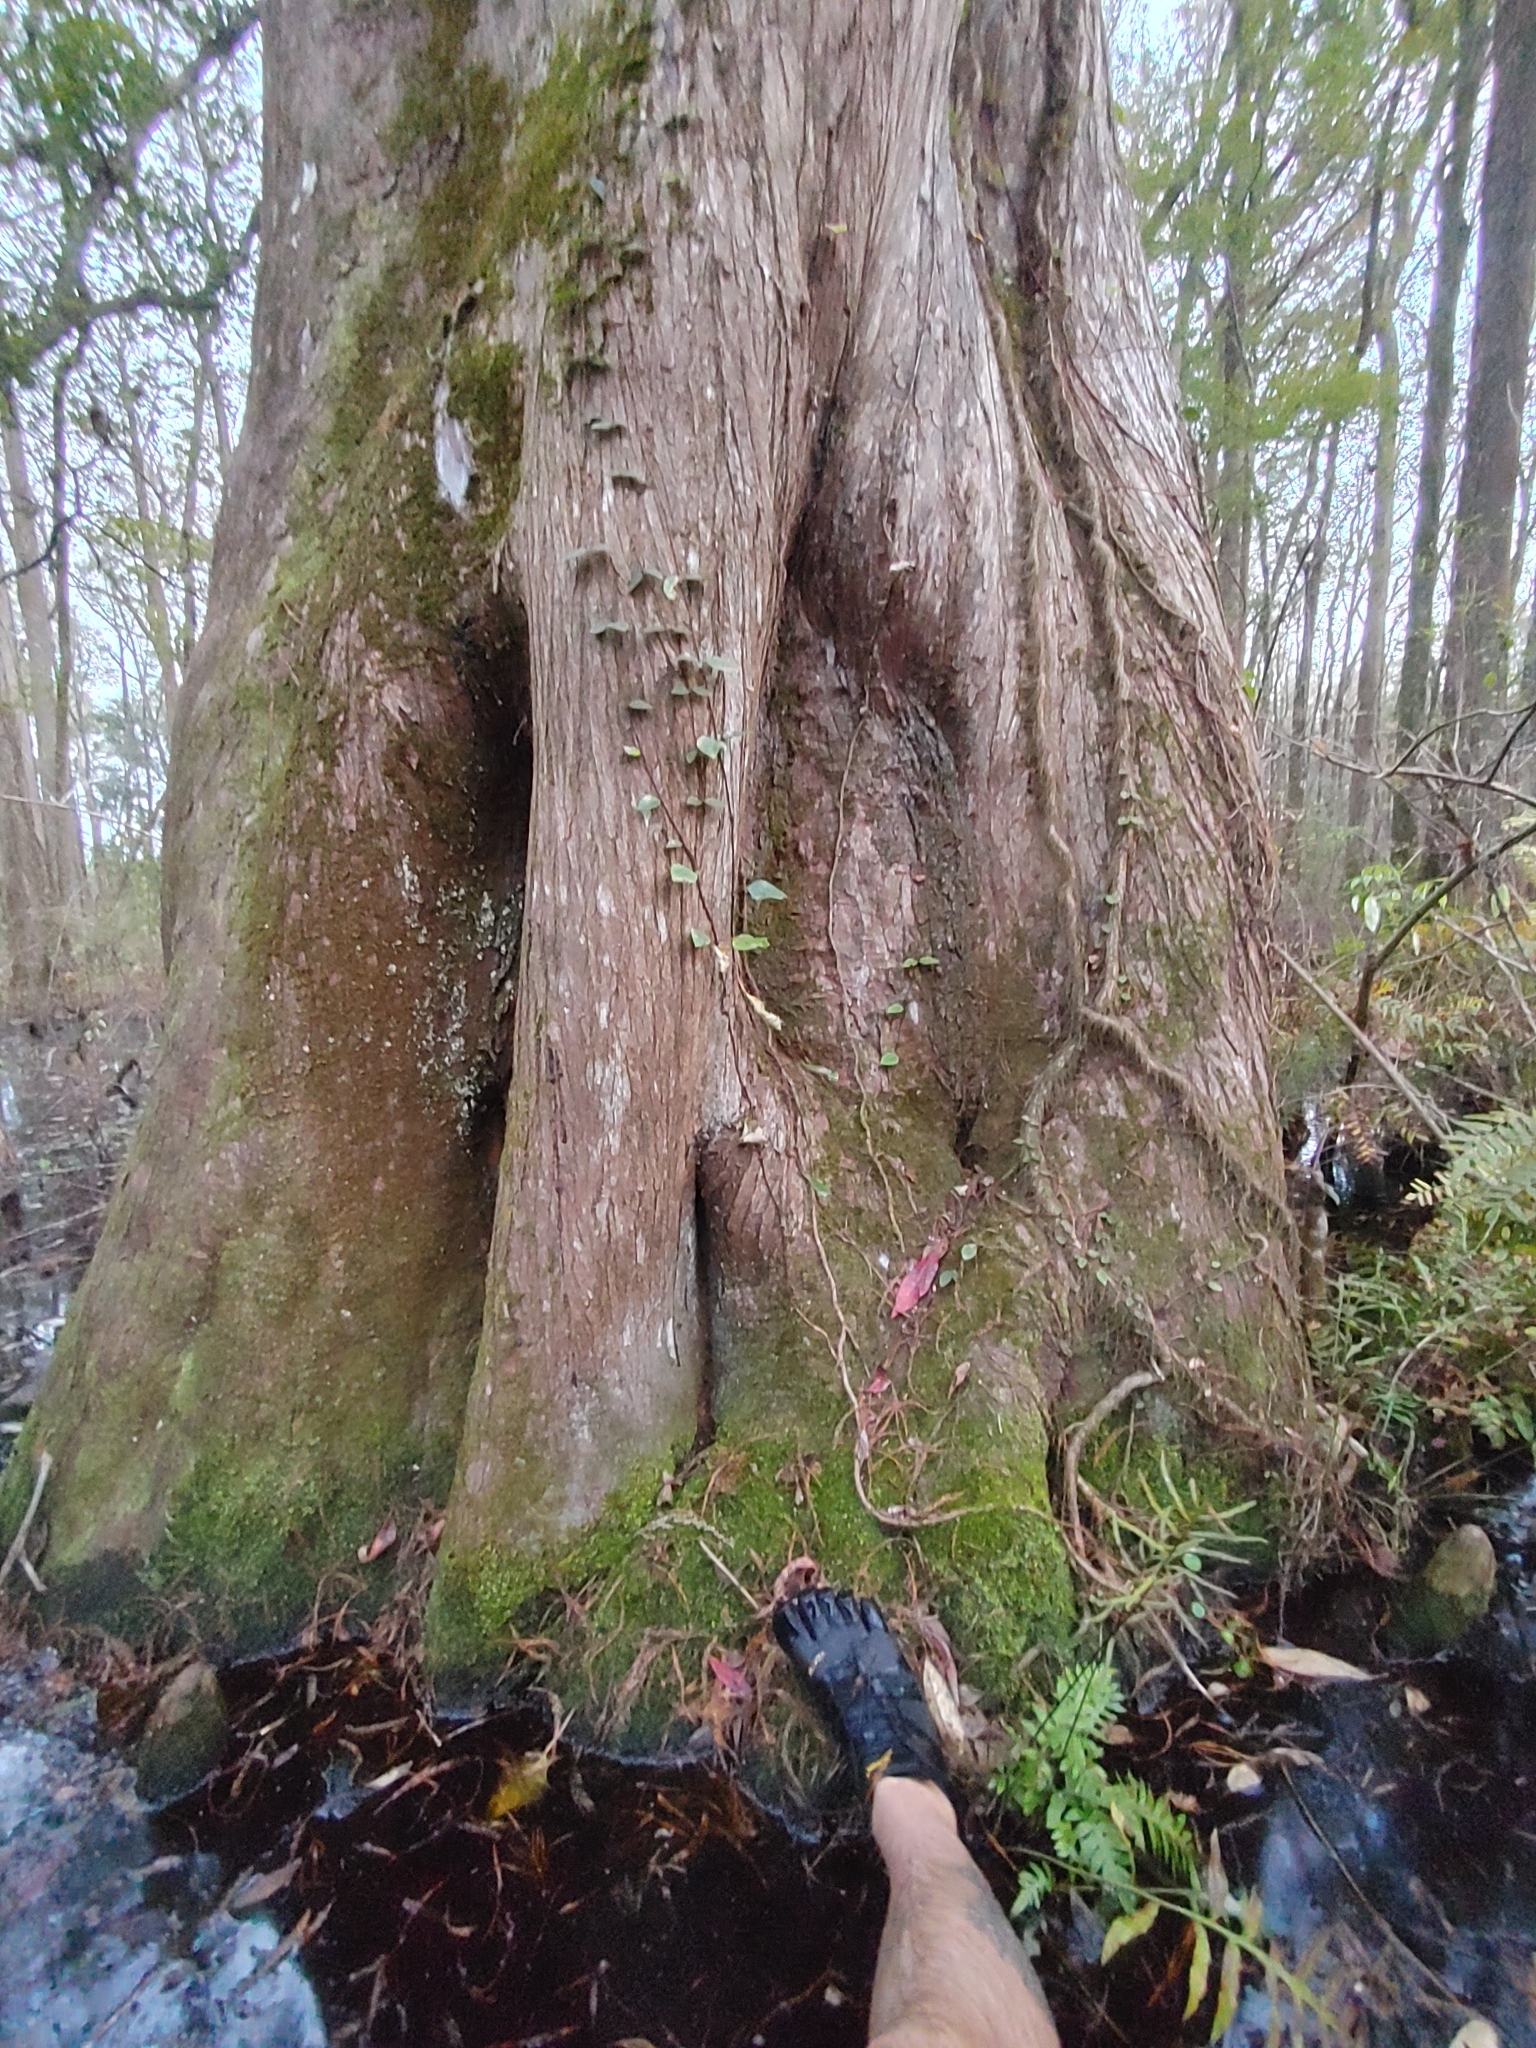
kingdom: Plantae
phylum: Tracheophyta
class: Pinopsida
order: Pinales
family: Cupressaceae
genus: Taxodium
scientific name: Taxodium distichum
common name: Bald cypress
